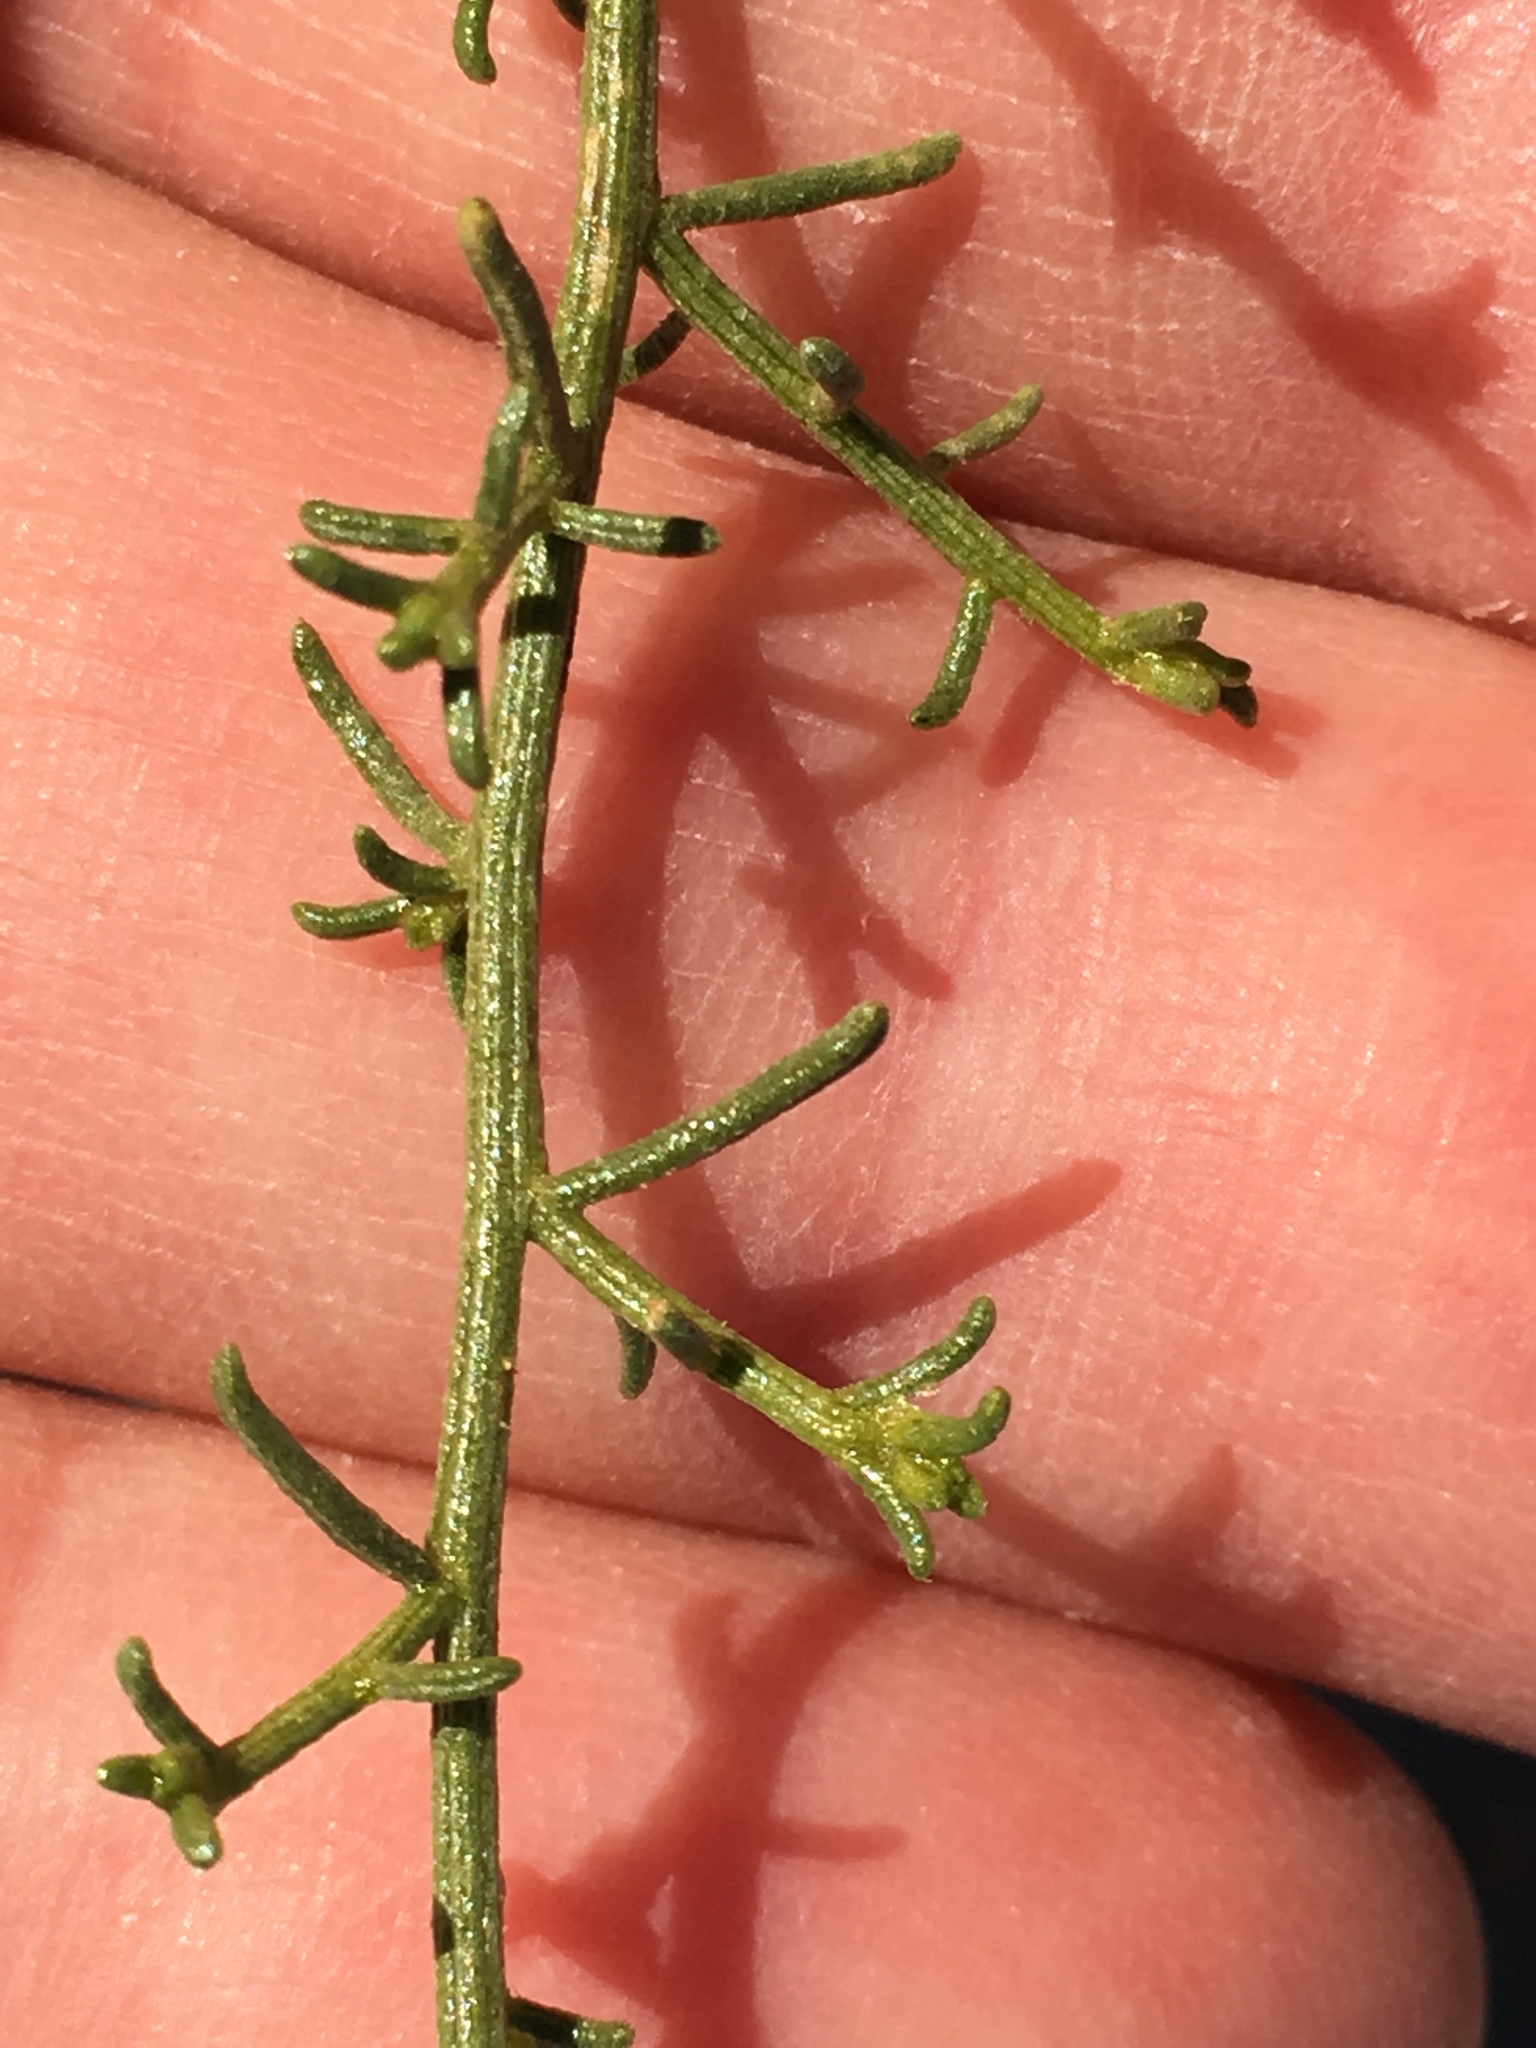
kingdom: Plantae
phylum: Tracheophyta
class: Magnoliopsida
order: Asterales
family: Asteraceae
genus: Ambrosia
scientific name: Ambrosia salsola
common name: Burrobrush
